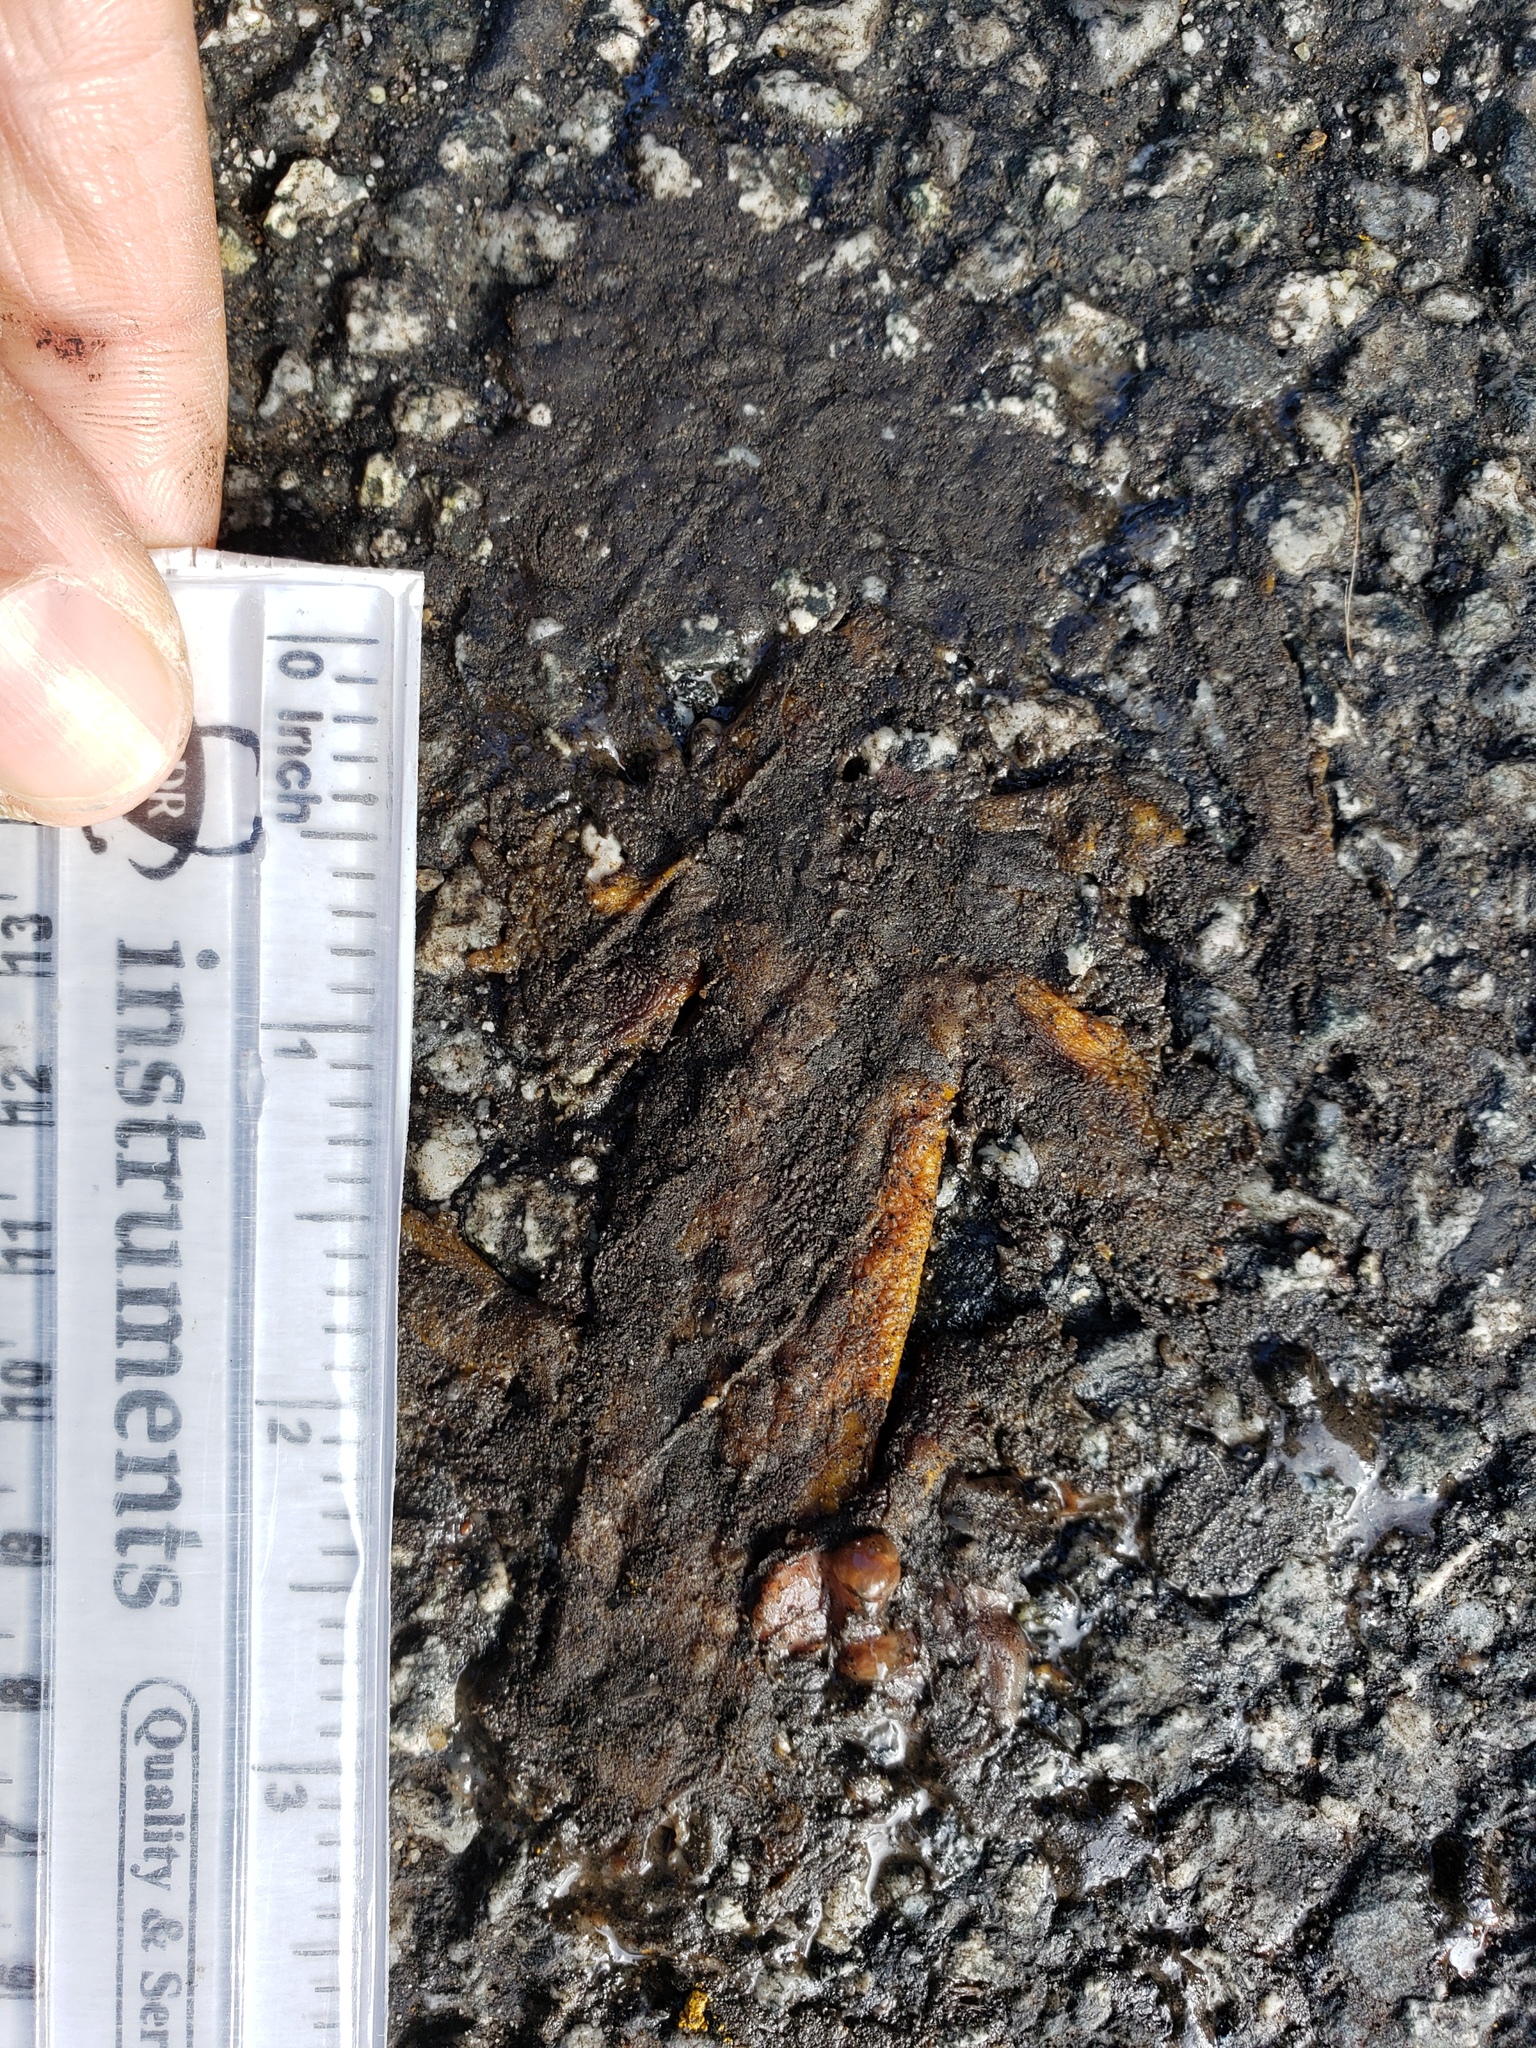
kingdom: Animalia
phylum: Chordata
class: Amphibia
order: Caudata
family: Salamandridae
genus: Taricha
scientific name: Taricha
